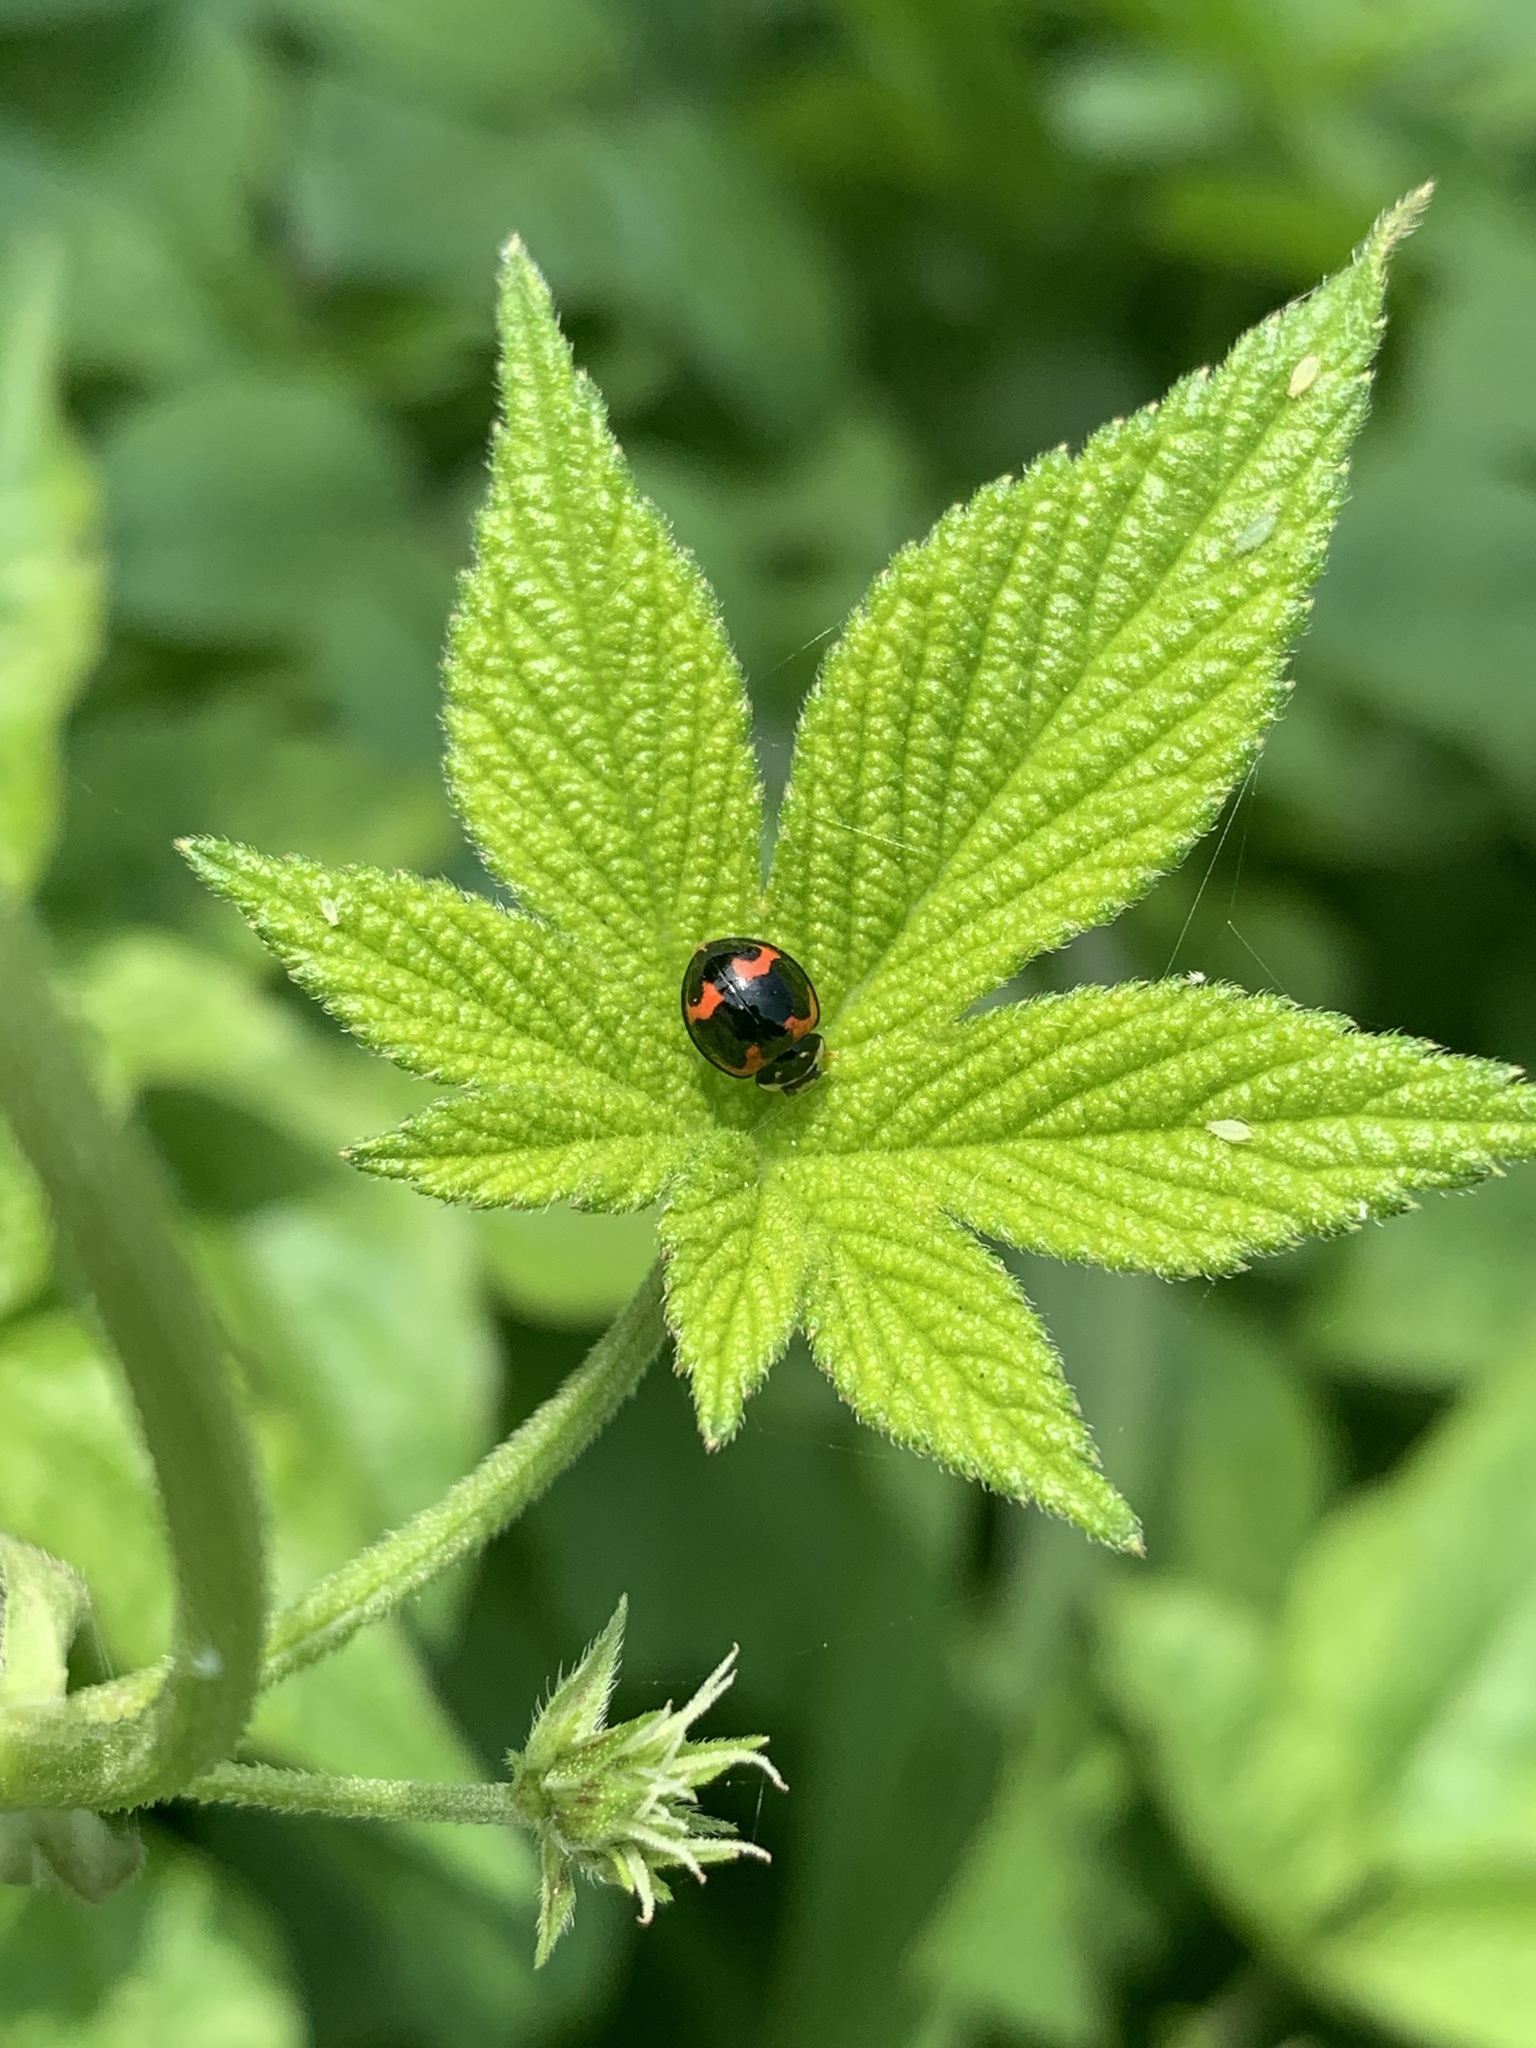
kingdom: Animalia
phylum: Arthropoda
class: Insecta
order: Coleoptera
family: Coccinellidae
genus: Cheilomenes
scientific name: Cheilomenes sexmaculata
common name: Ladybird beetle
